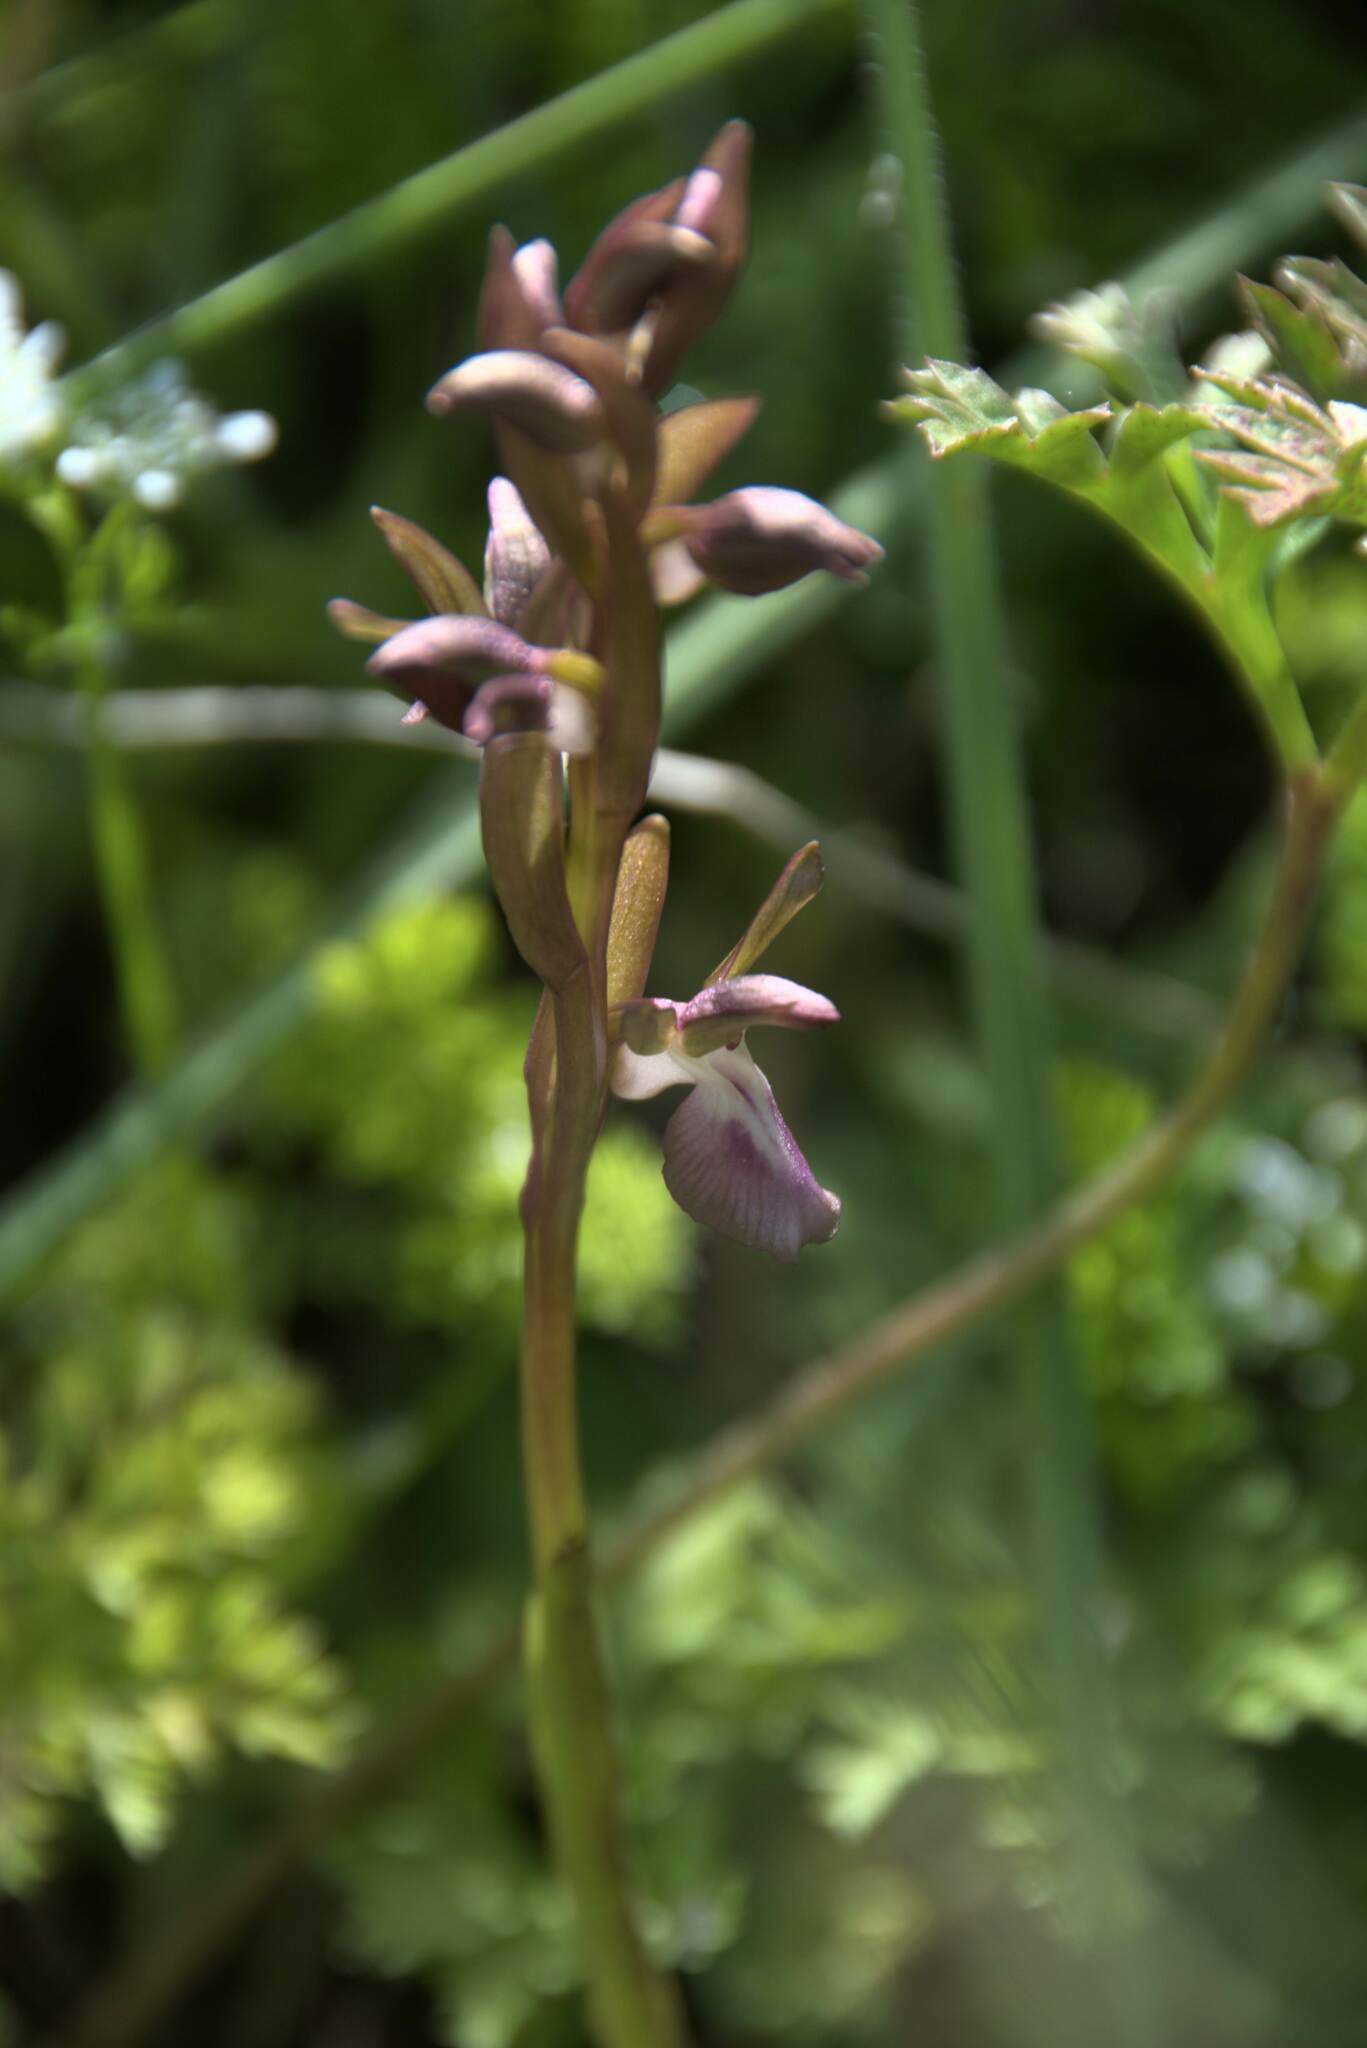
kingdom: Plantae
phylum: Tracheophyta
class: Liliopsida
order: Asparagales
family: Orchidaceae
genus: Anacamptis
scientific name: Anacamptis collina
